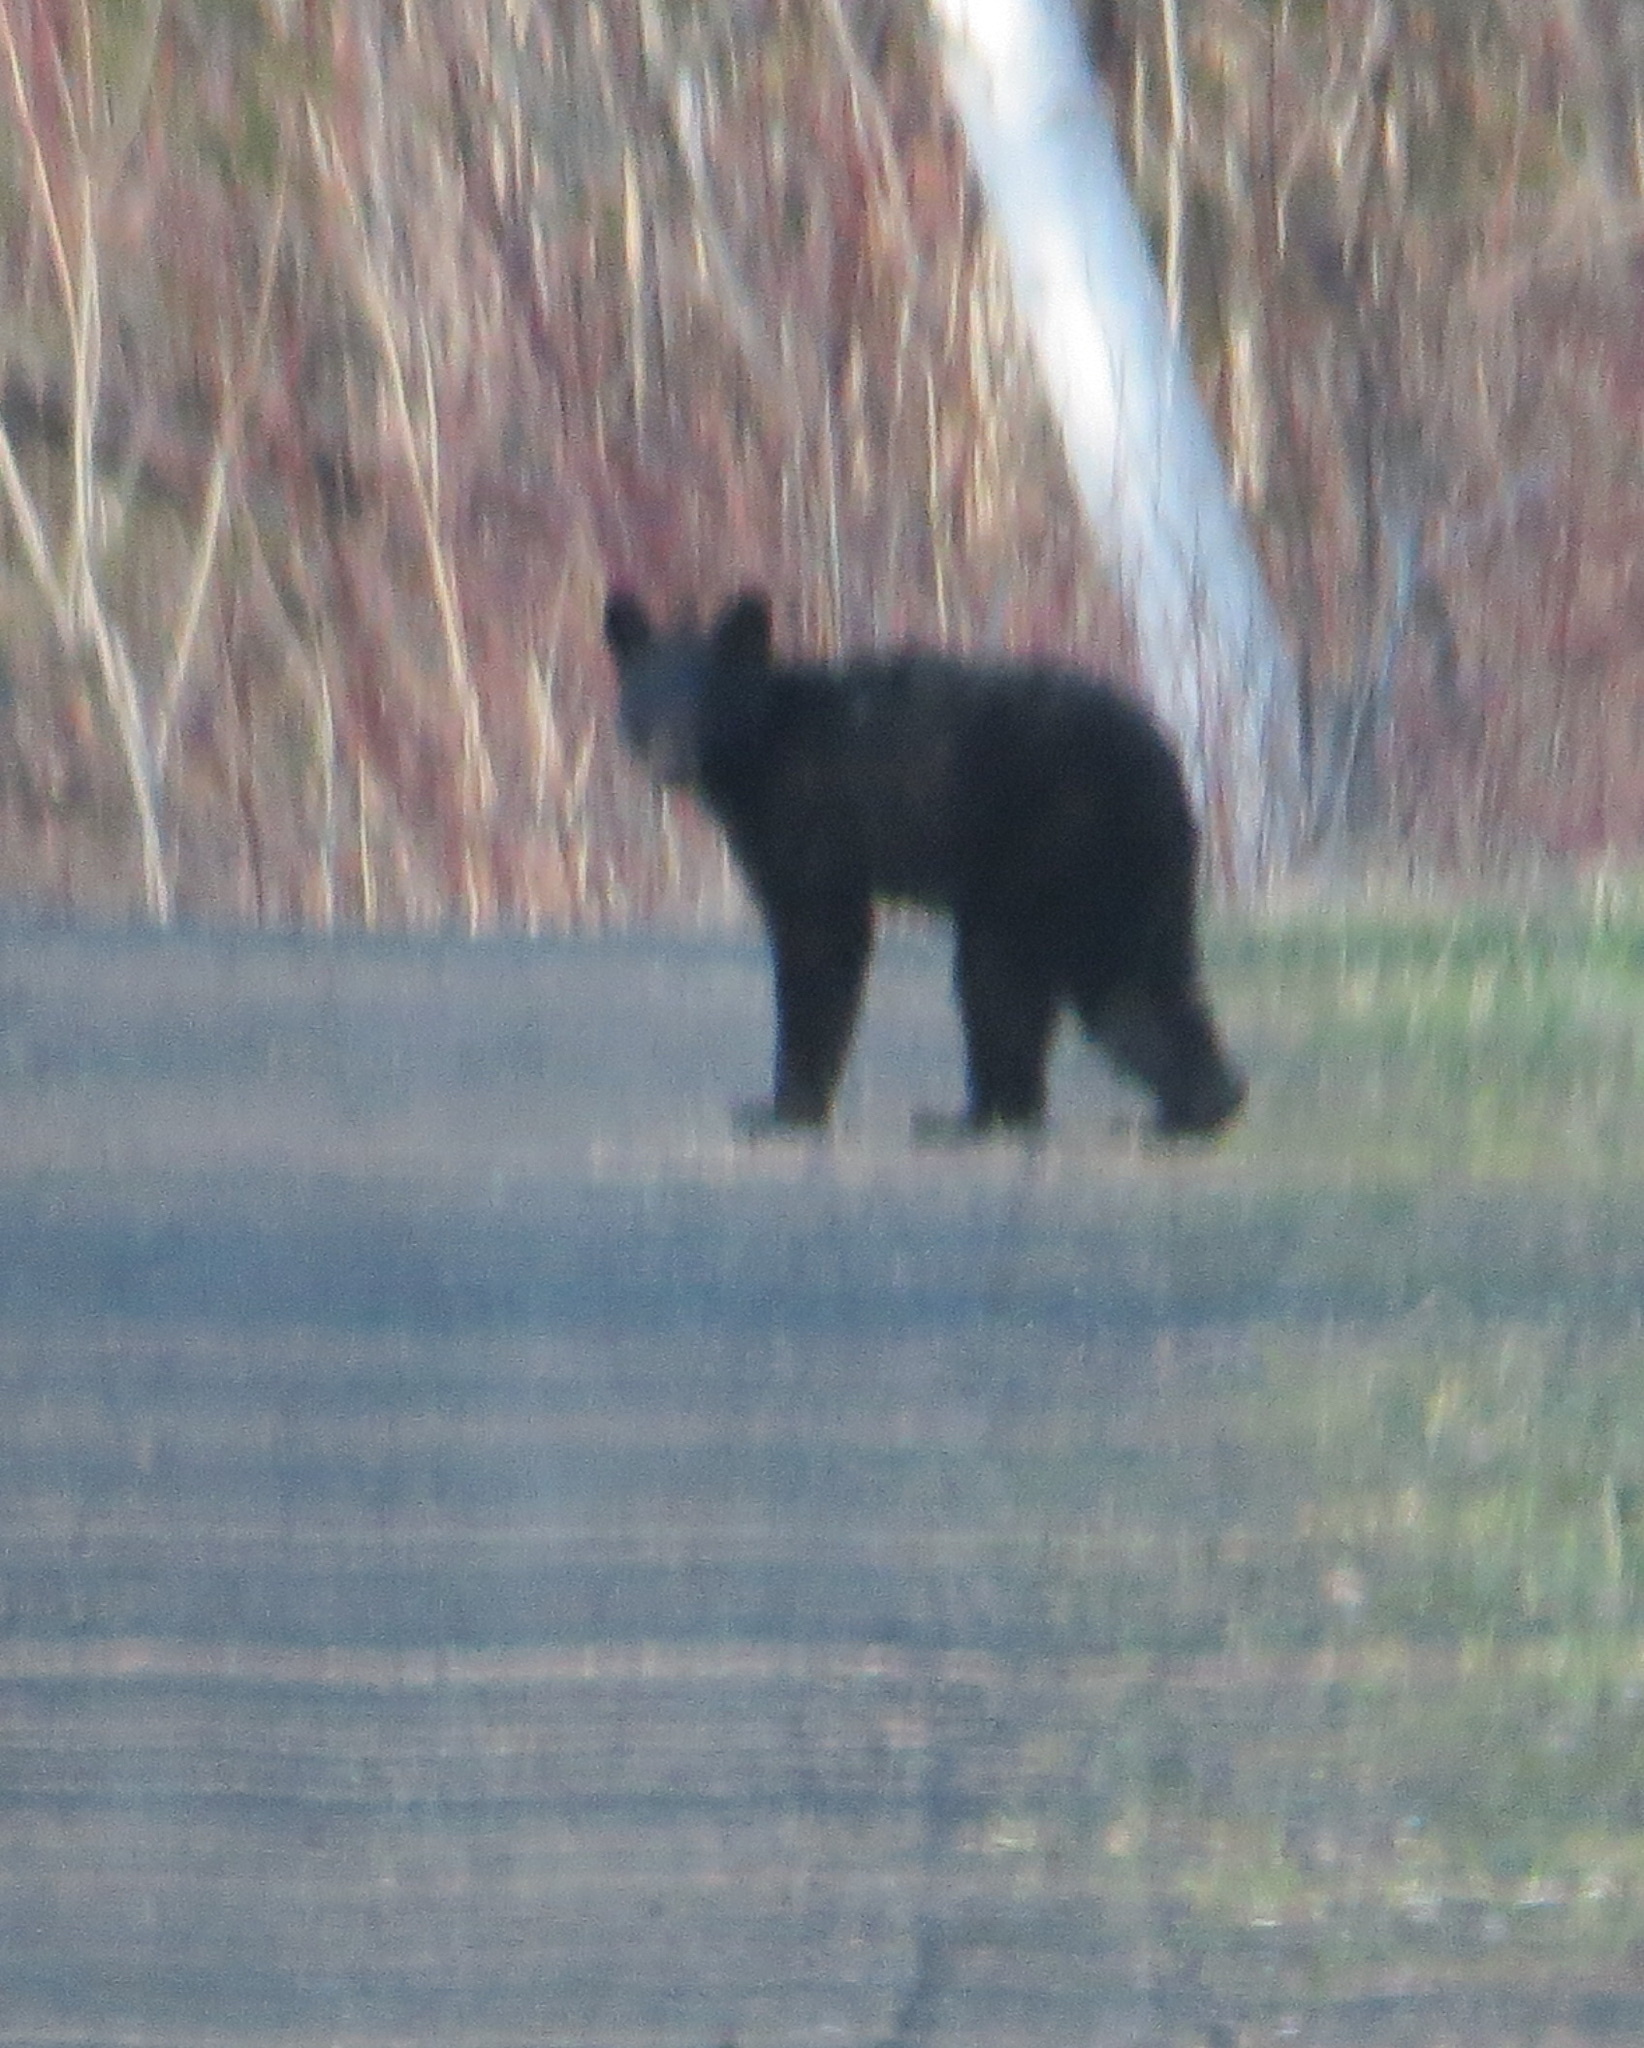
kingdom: Animalia
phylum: Chordata
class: Mammalia
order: Carnivora
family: Ursidae
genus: Ursus
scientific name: Ursus americanus
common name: American black bear
